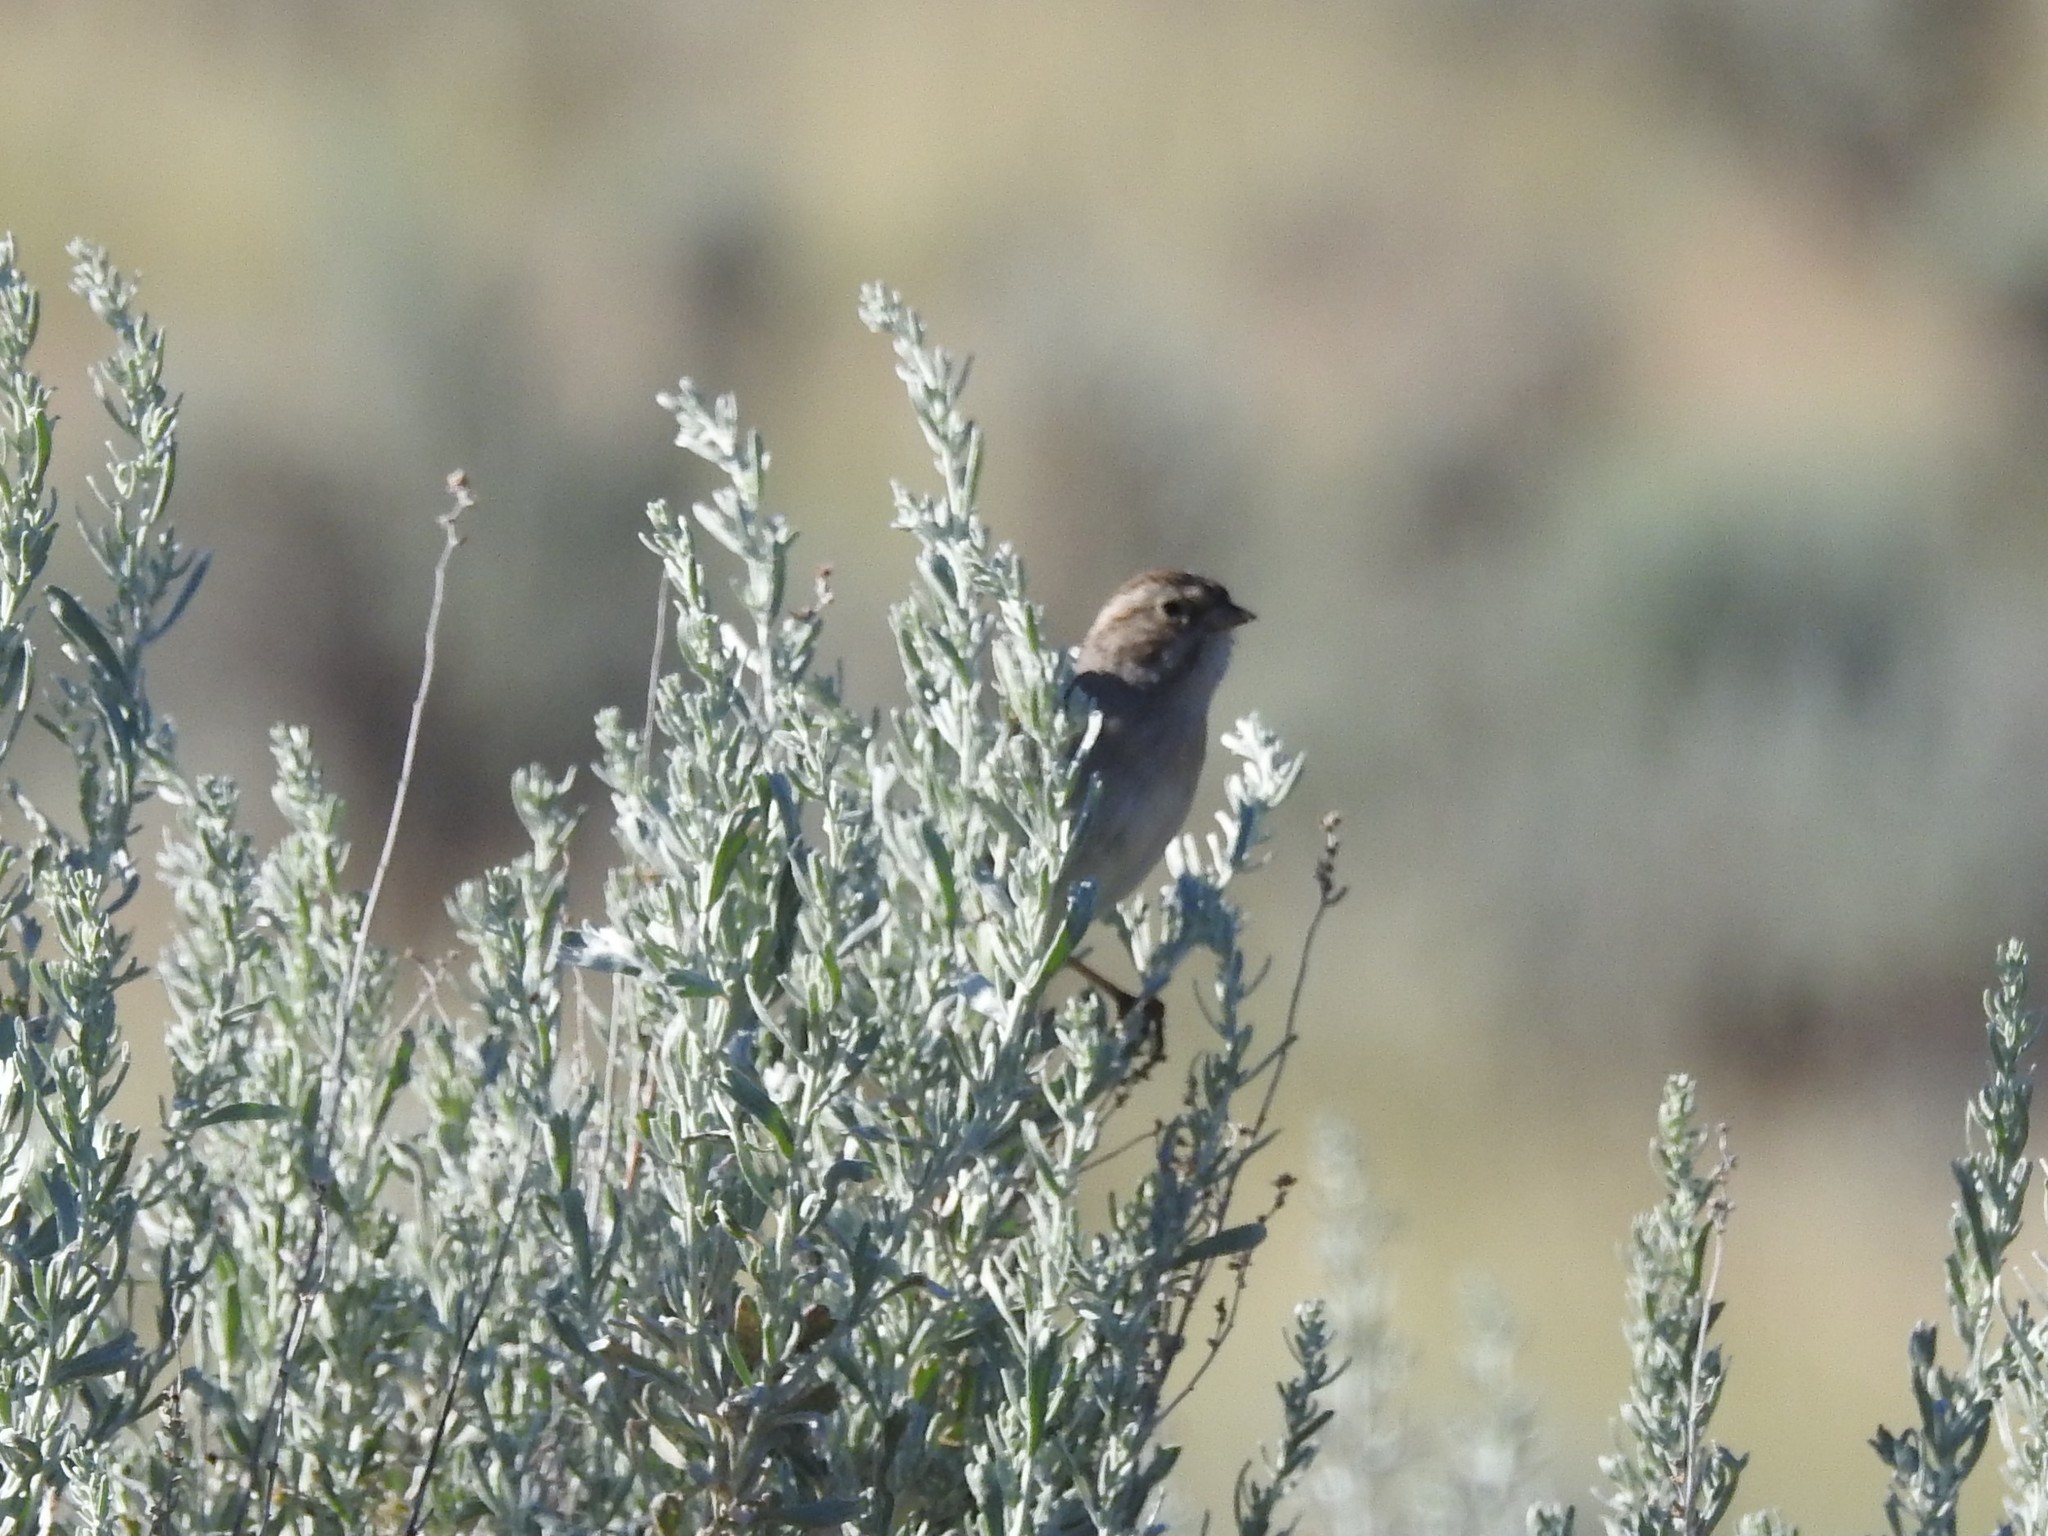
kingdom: Animalia
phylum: Chordata
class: Aves
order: Passeriformes
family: Passerellidae
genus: Spizella
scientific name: Spizella breweri
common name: Brewer's sparrow
